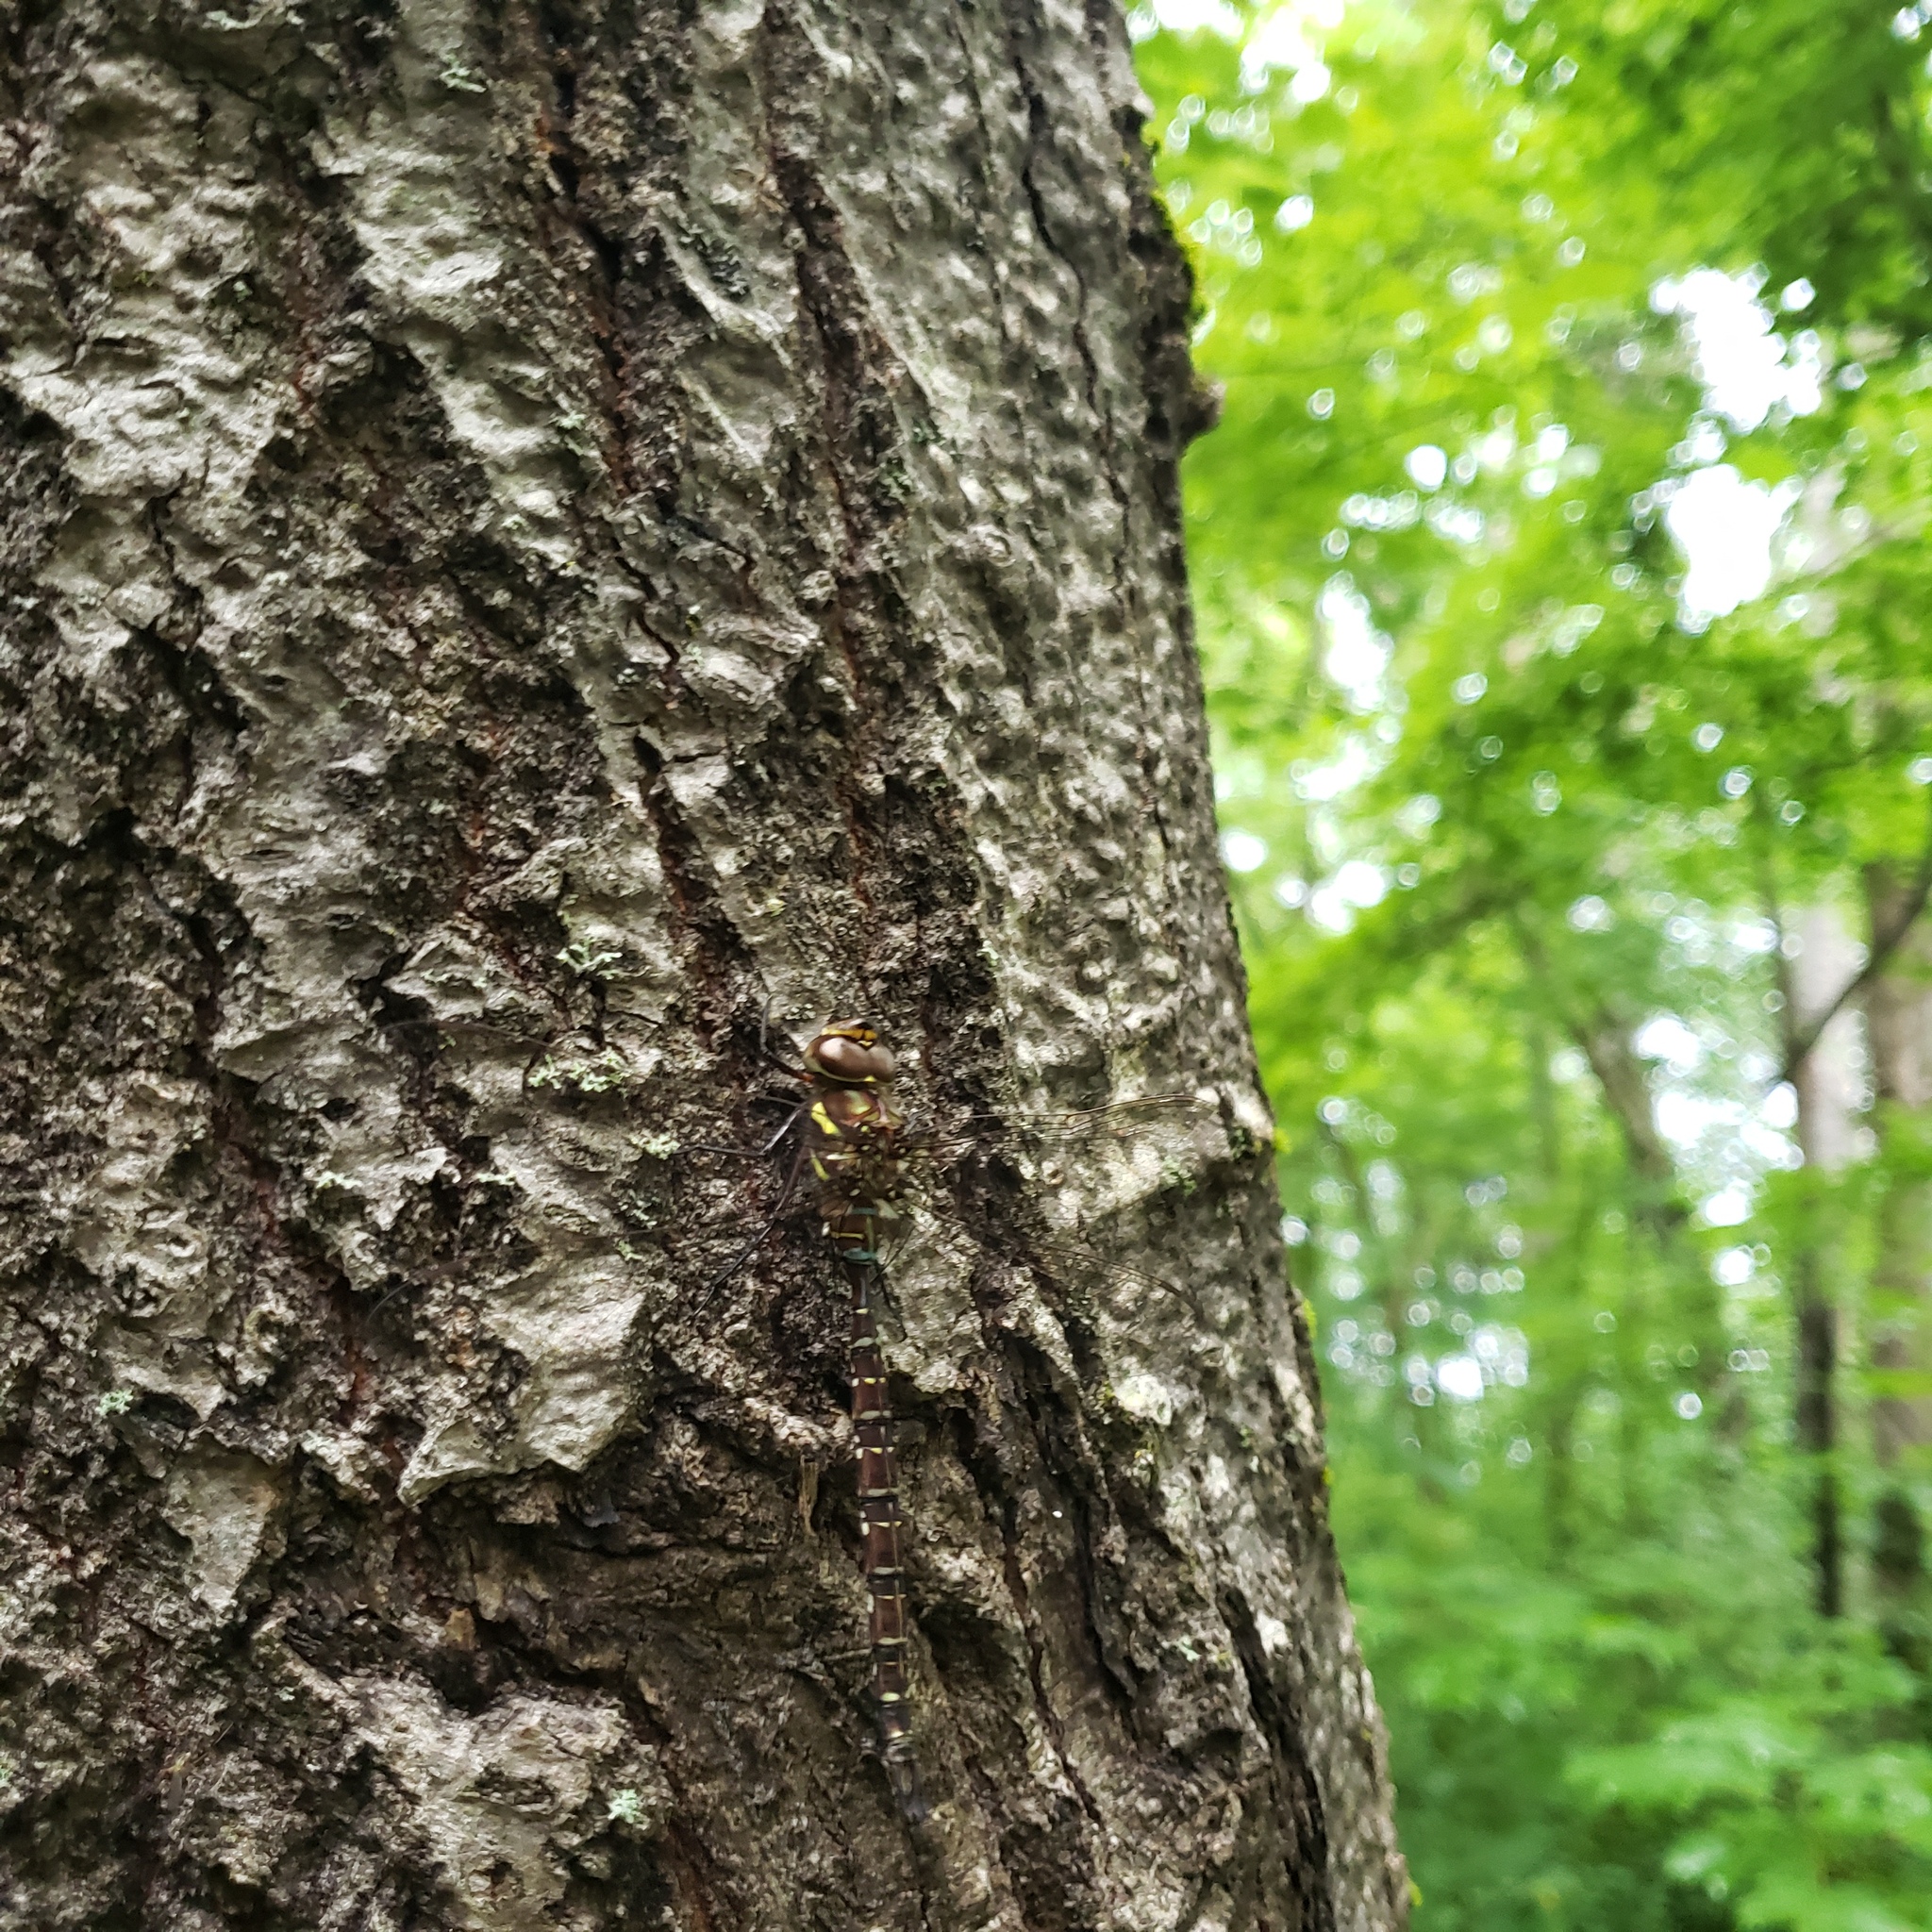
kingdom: Animalia
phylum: Arthropoda
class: Insecta
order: Odonata
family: Aeshnidae
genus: Aeshna
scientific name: Aeshna umbrosa
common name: Shadow darner
